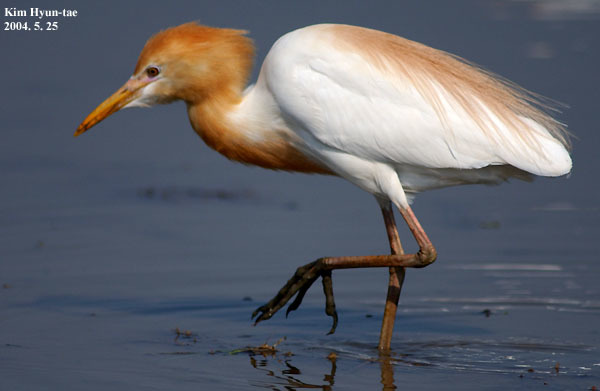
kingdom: Animalia
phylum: Chordata
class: Aves
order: Pelecaniformes
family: Ardeidae
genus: Bubulcus
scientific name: Bubulcus coromandus
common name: Eastern cattle egret
